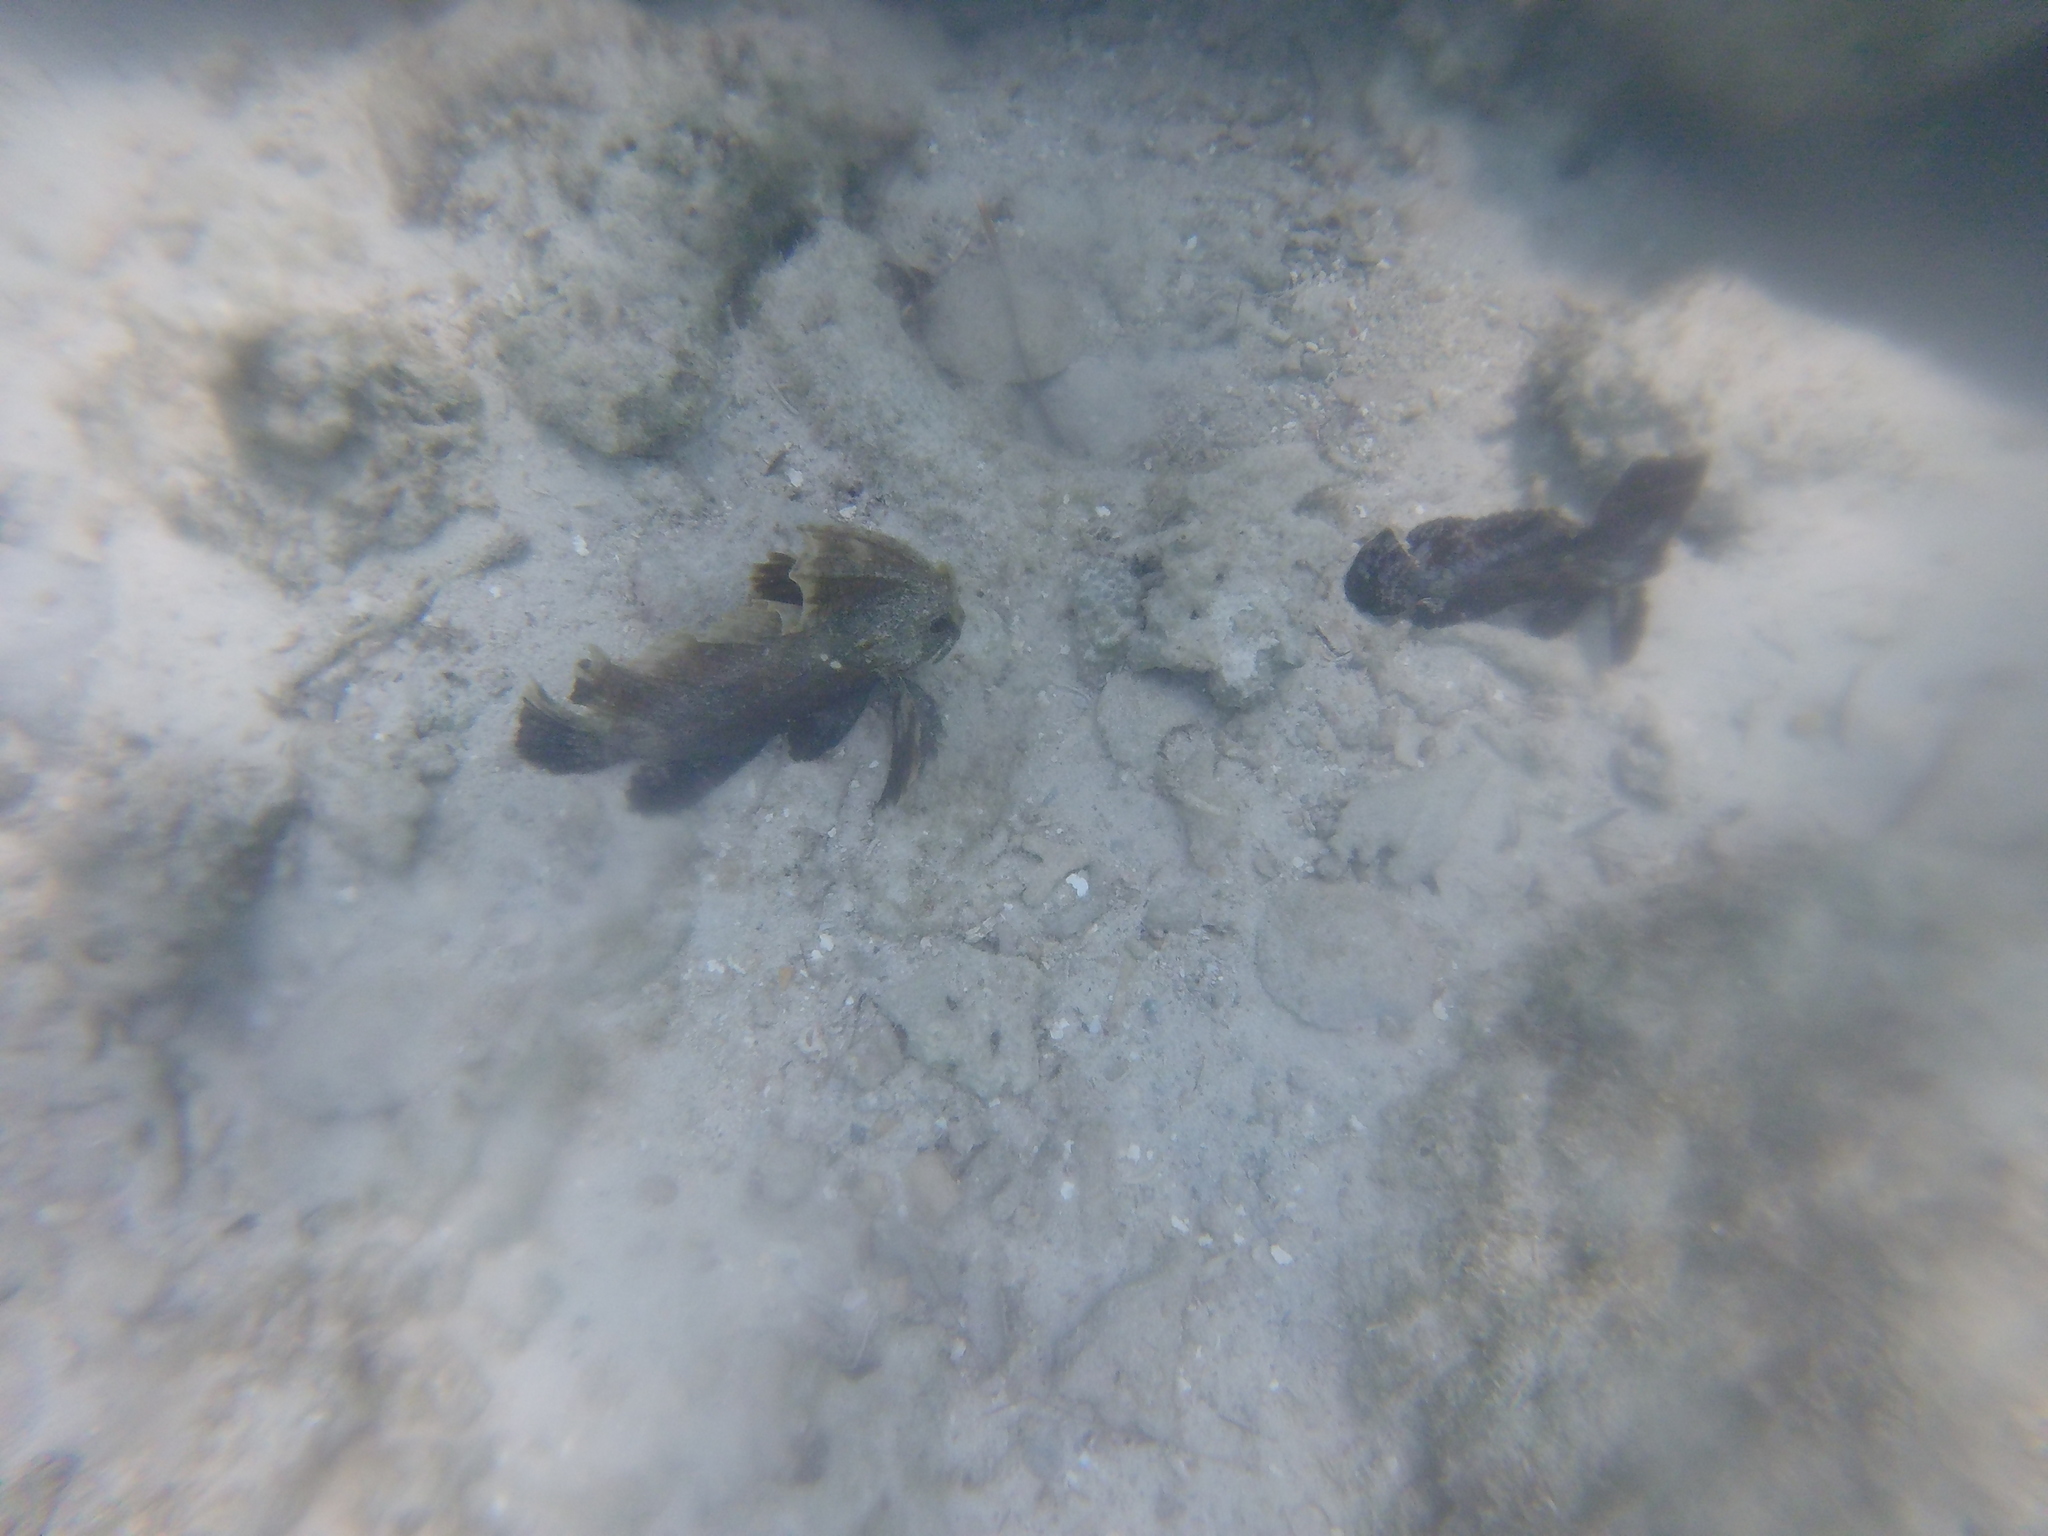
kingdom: Animalia
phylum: Chordata
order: Scorpaeniformes
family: Tetrarogidae
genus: Ablabys
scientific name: Ablabys binotatus
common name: Redskinfish
